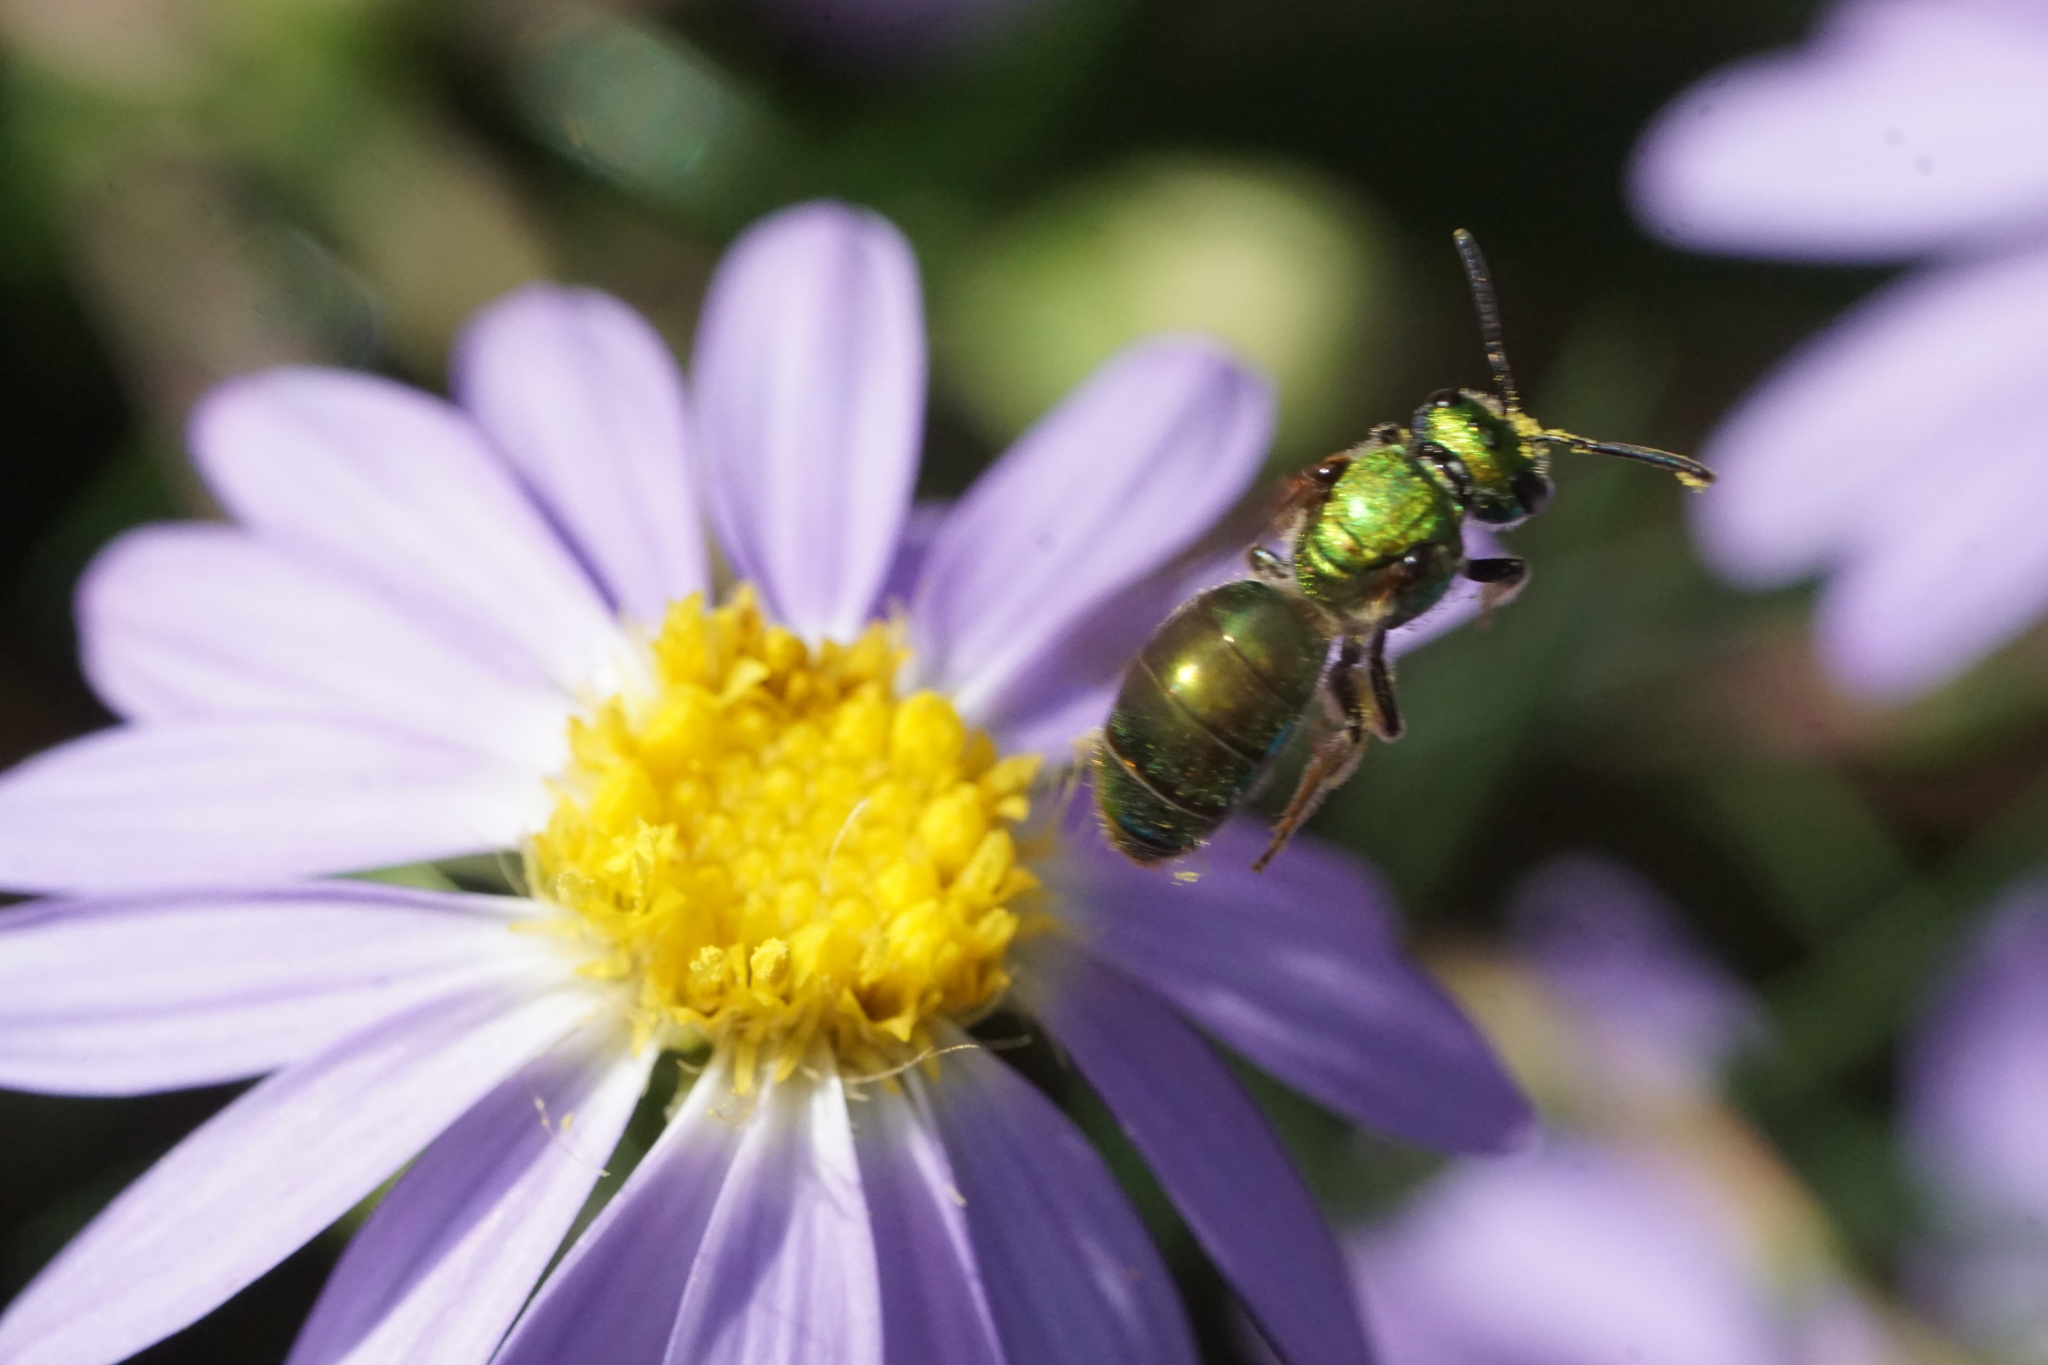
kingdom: Animalia
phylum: Arthropoda
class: Insecta
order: Hymenoptera
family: Halictidae
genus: Augochlora
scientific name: Augochlora pura
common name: Pure green sweat bee
